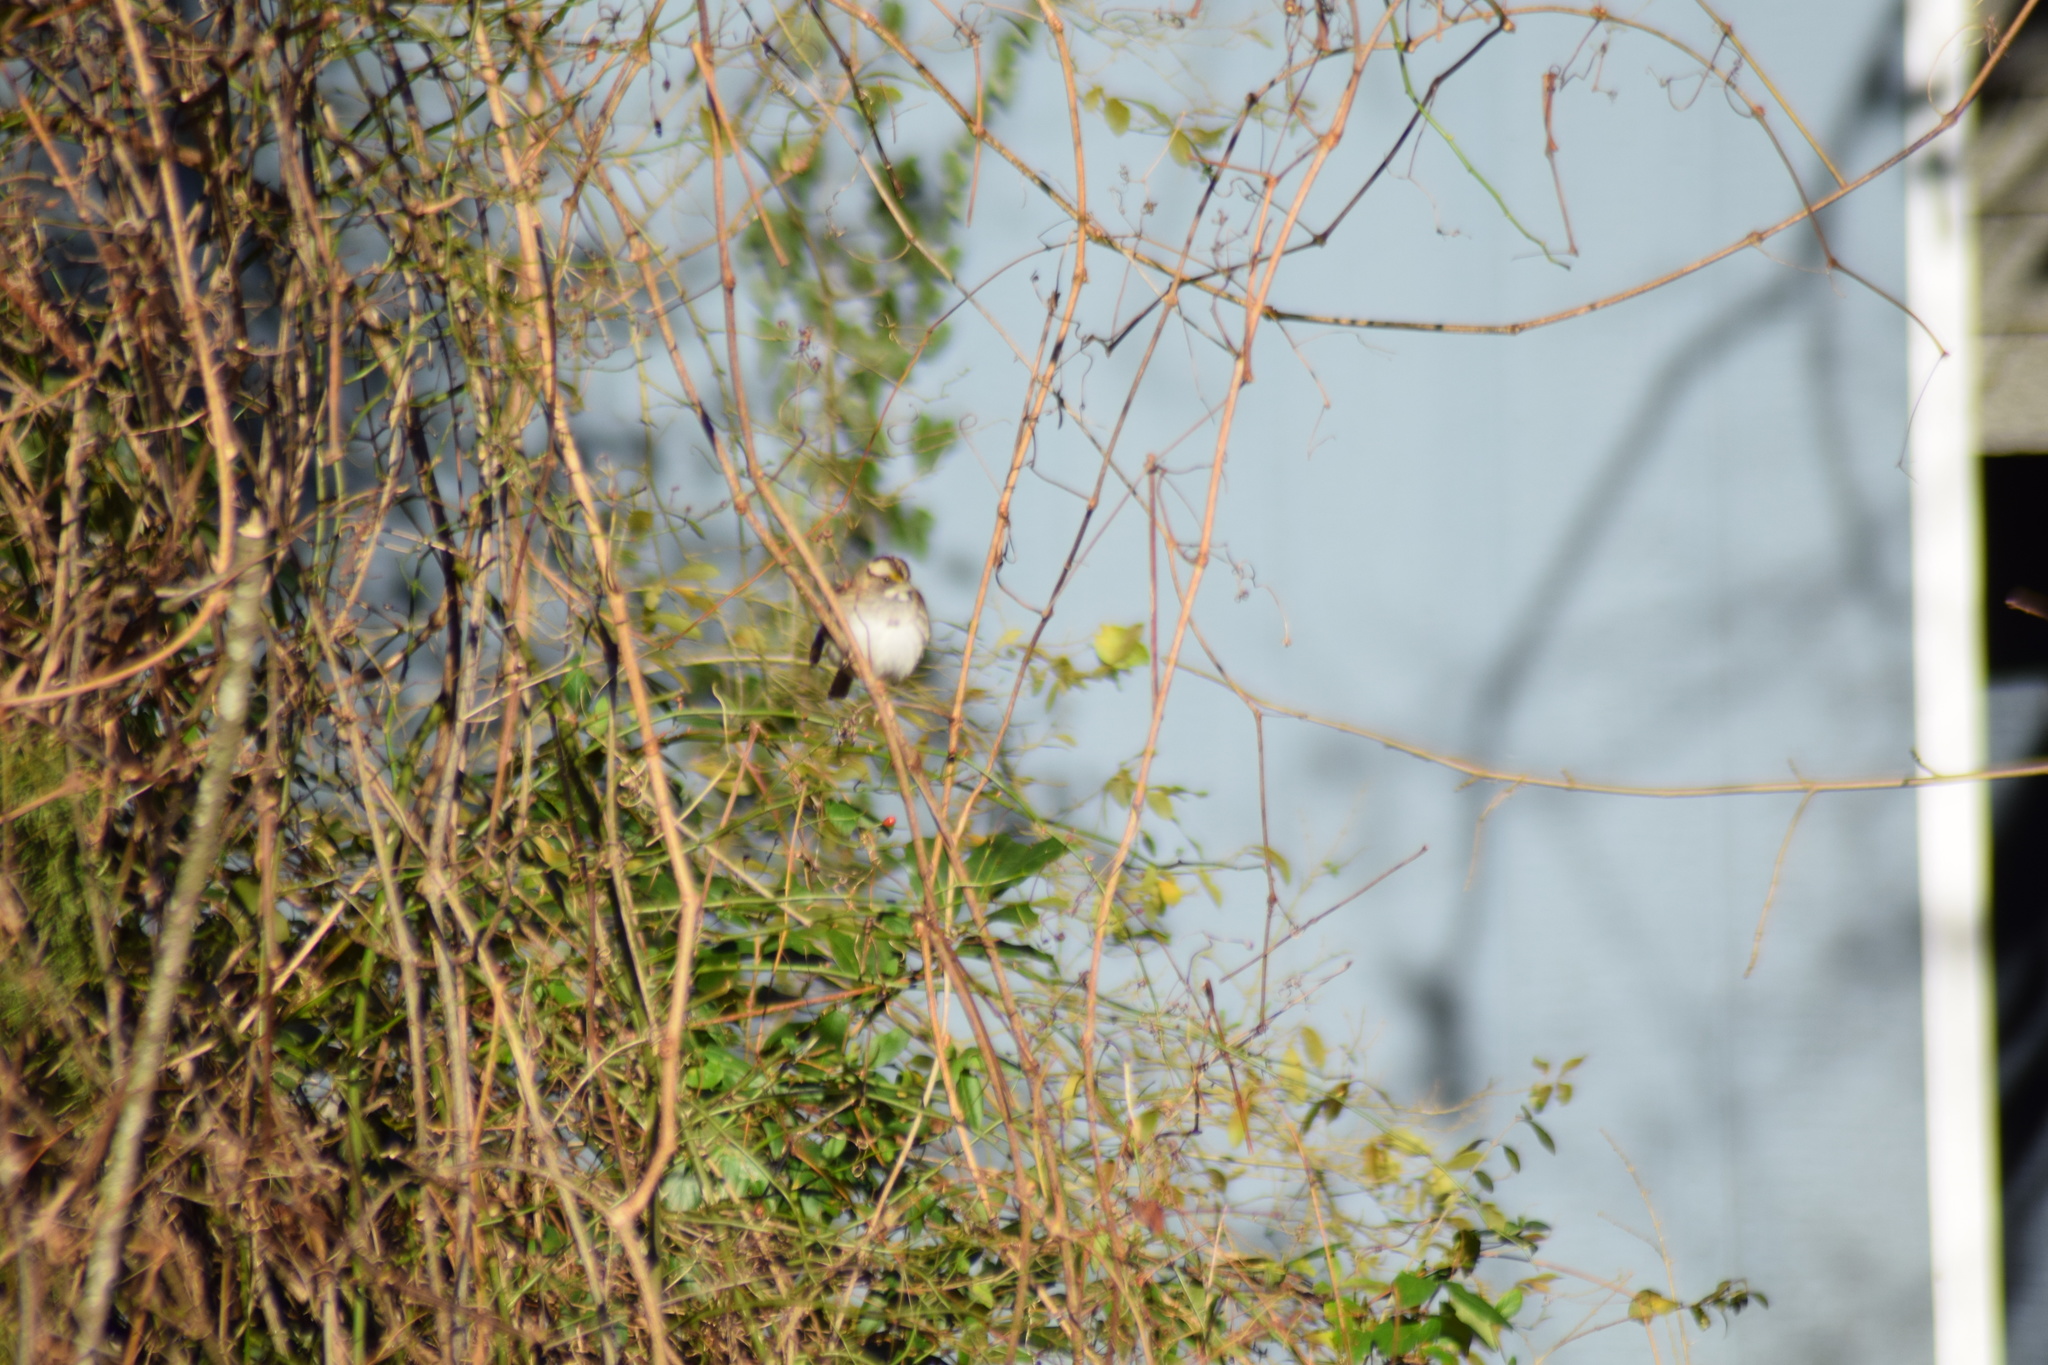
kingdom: Animalia
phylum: Chordata
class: Aves
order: Passeriformes
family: Passerellidae
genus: Zonotrichia
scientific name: Zonotrichia albicollis
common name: White-throated sparrow
